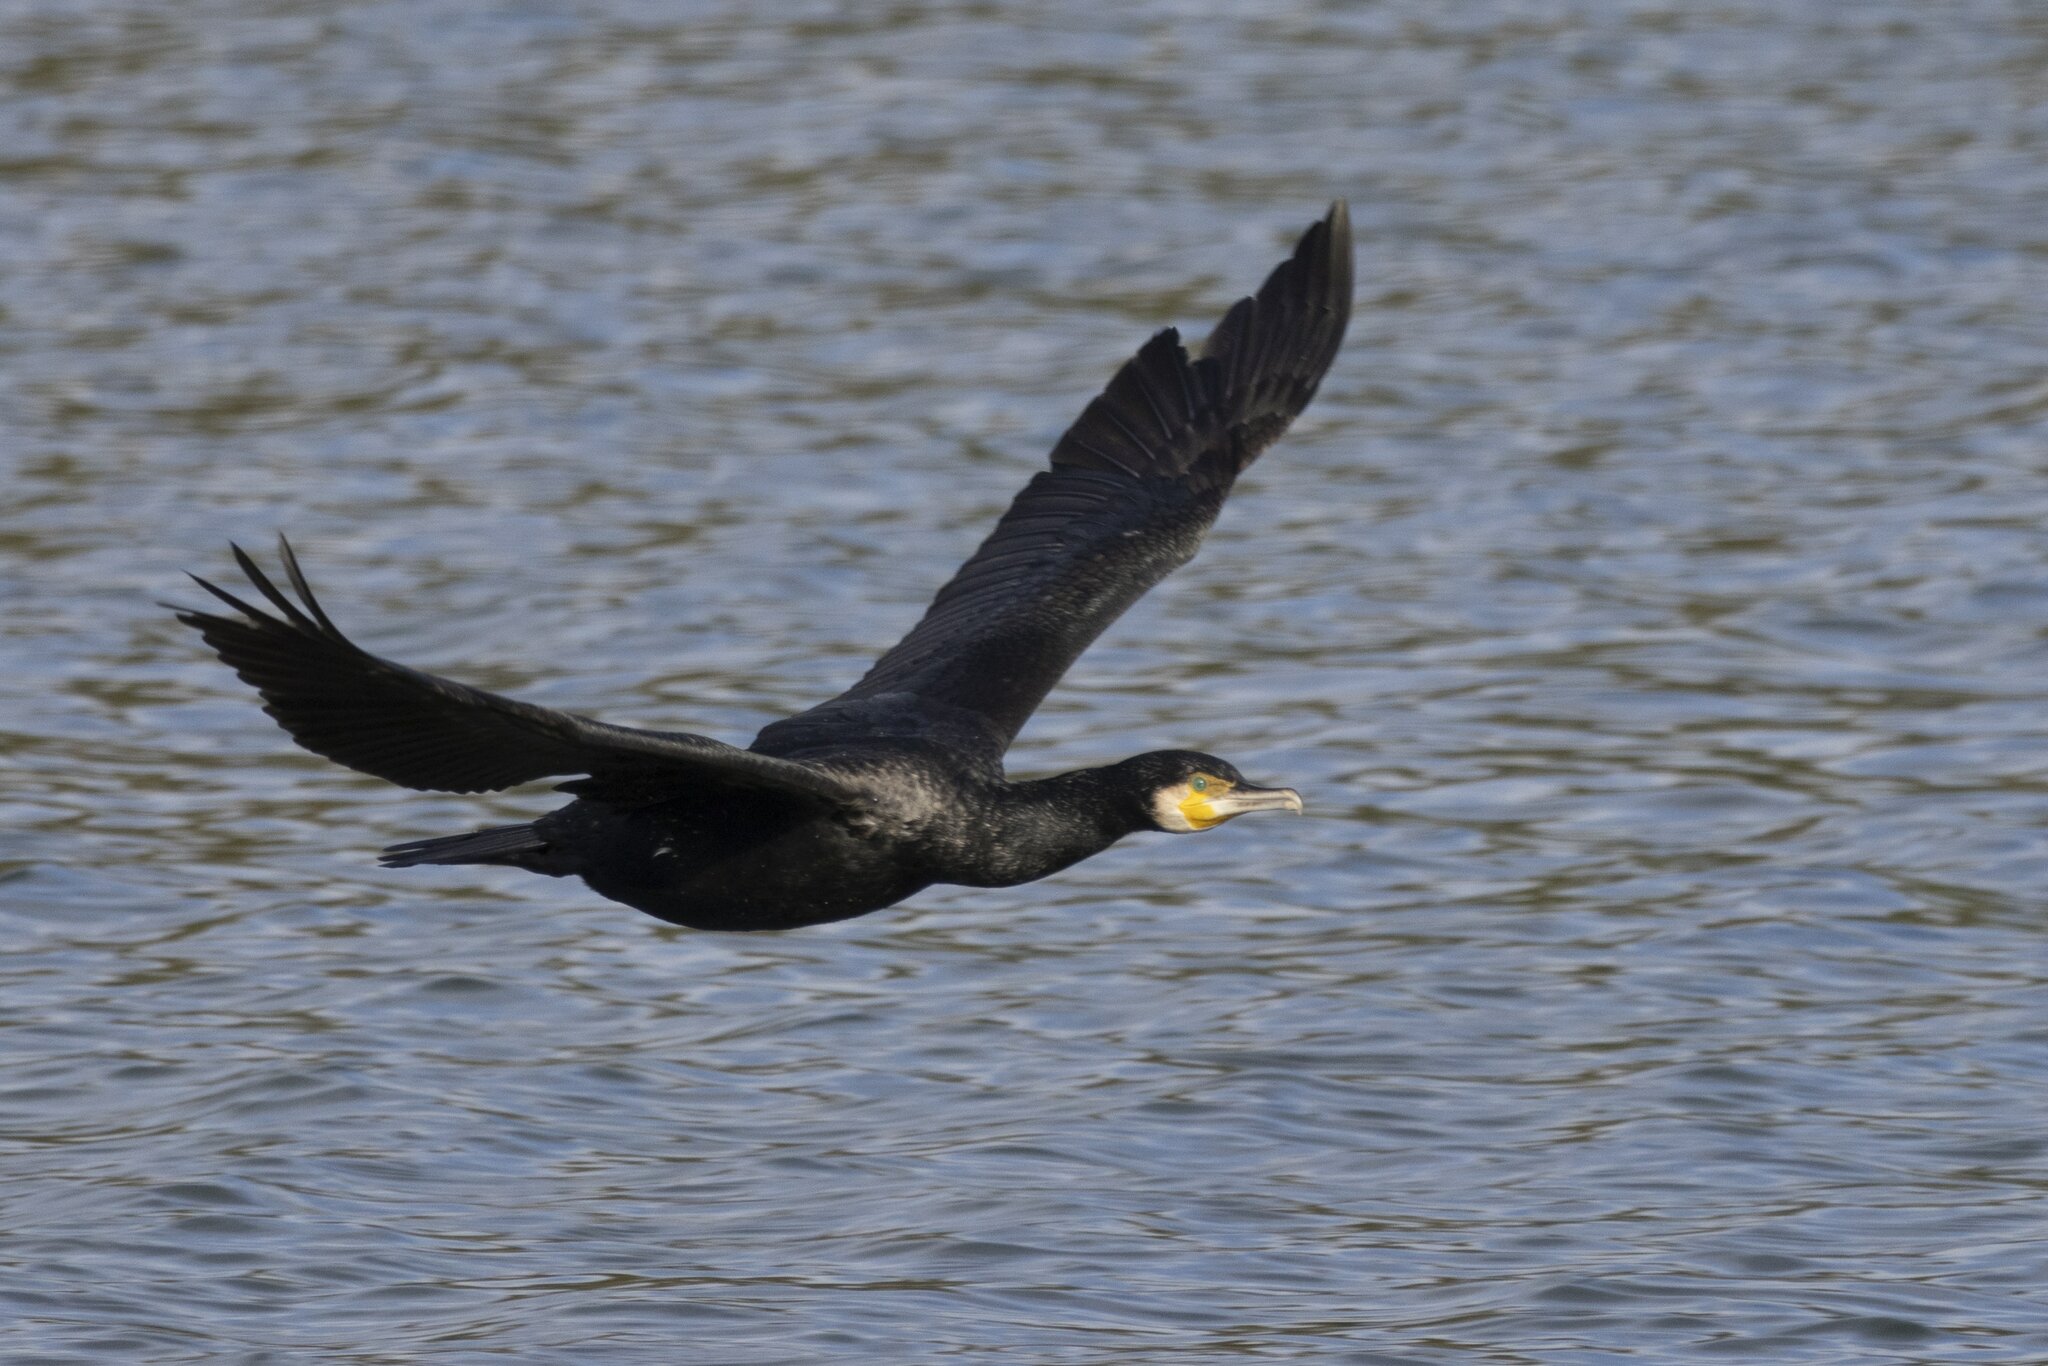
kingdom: Animalia
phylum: Chordata
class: Aves
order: Suliformes
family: Phalacrocoracidae
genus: Phalacrocorax
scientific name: Phalacrocorax carbo
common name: Great cormorant
